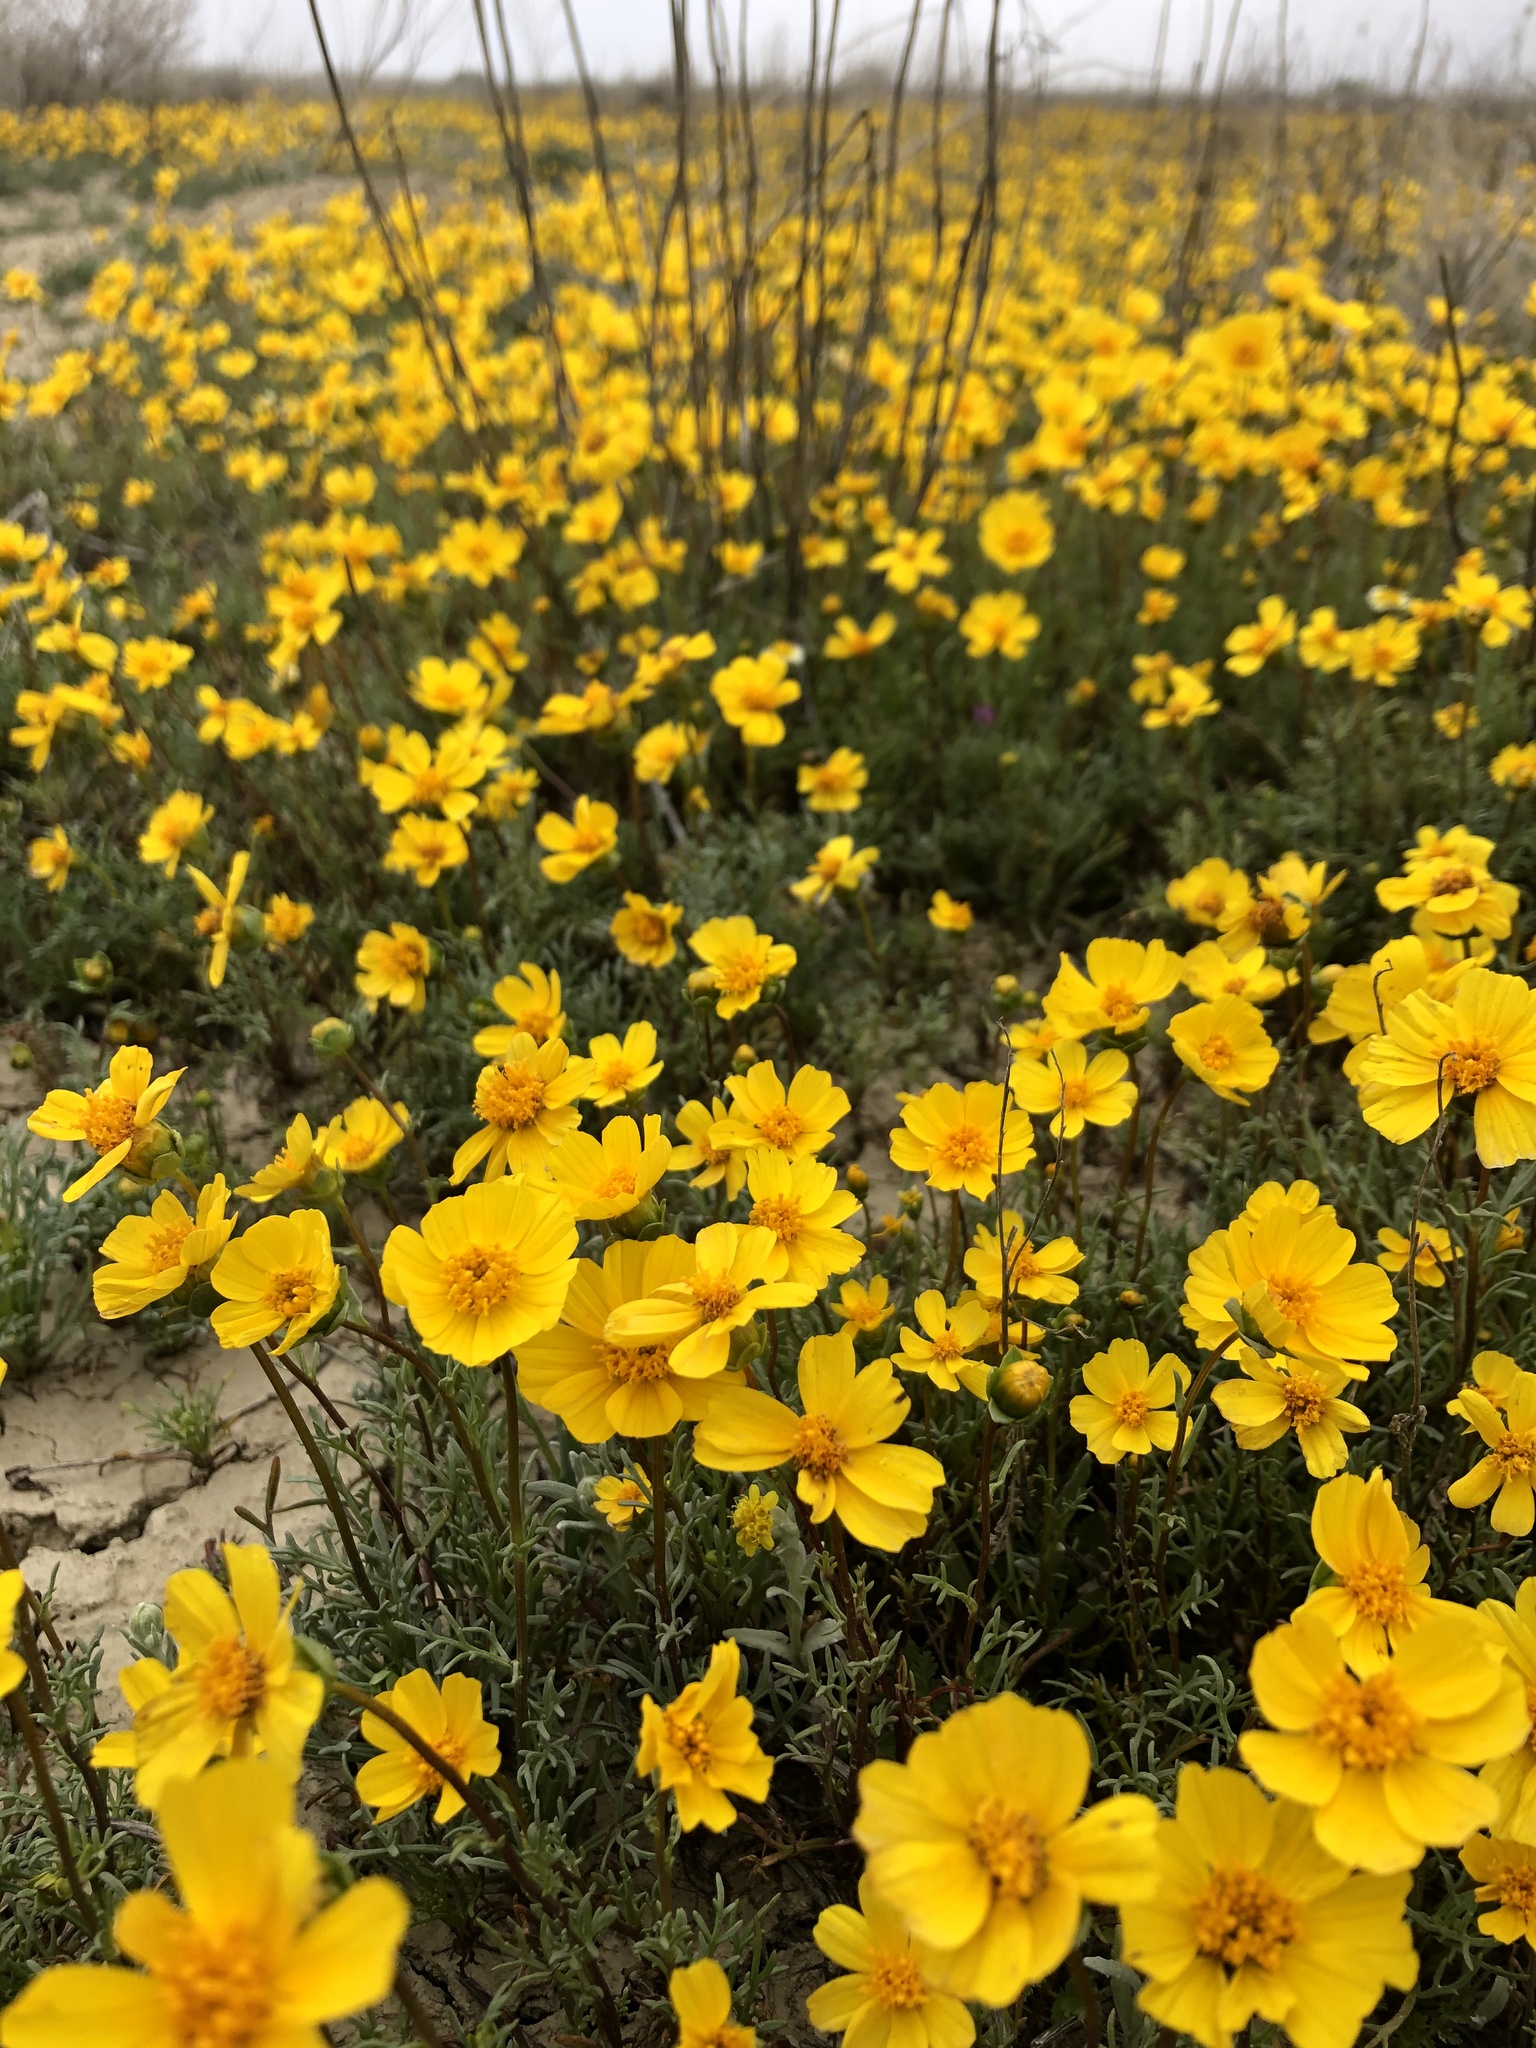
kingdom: Plantae
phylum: Tracheophyta
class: Magnoliopsida
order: Asterales
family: Asteraceae
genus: Coreopsis
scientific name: Coreopsis calliopsidea
